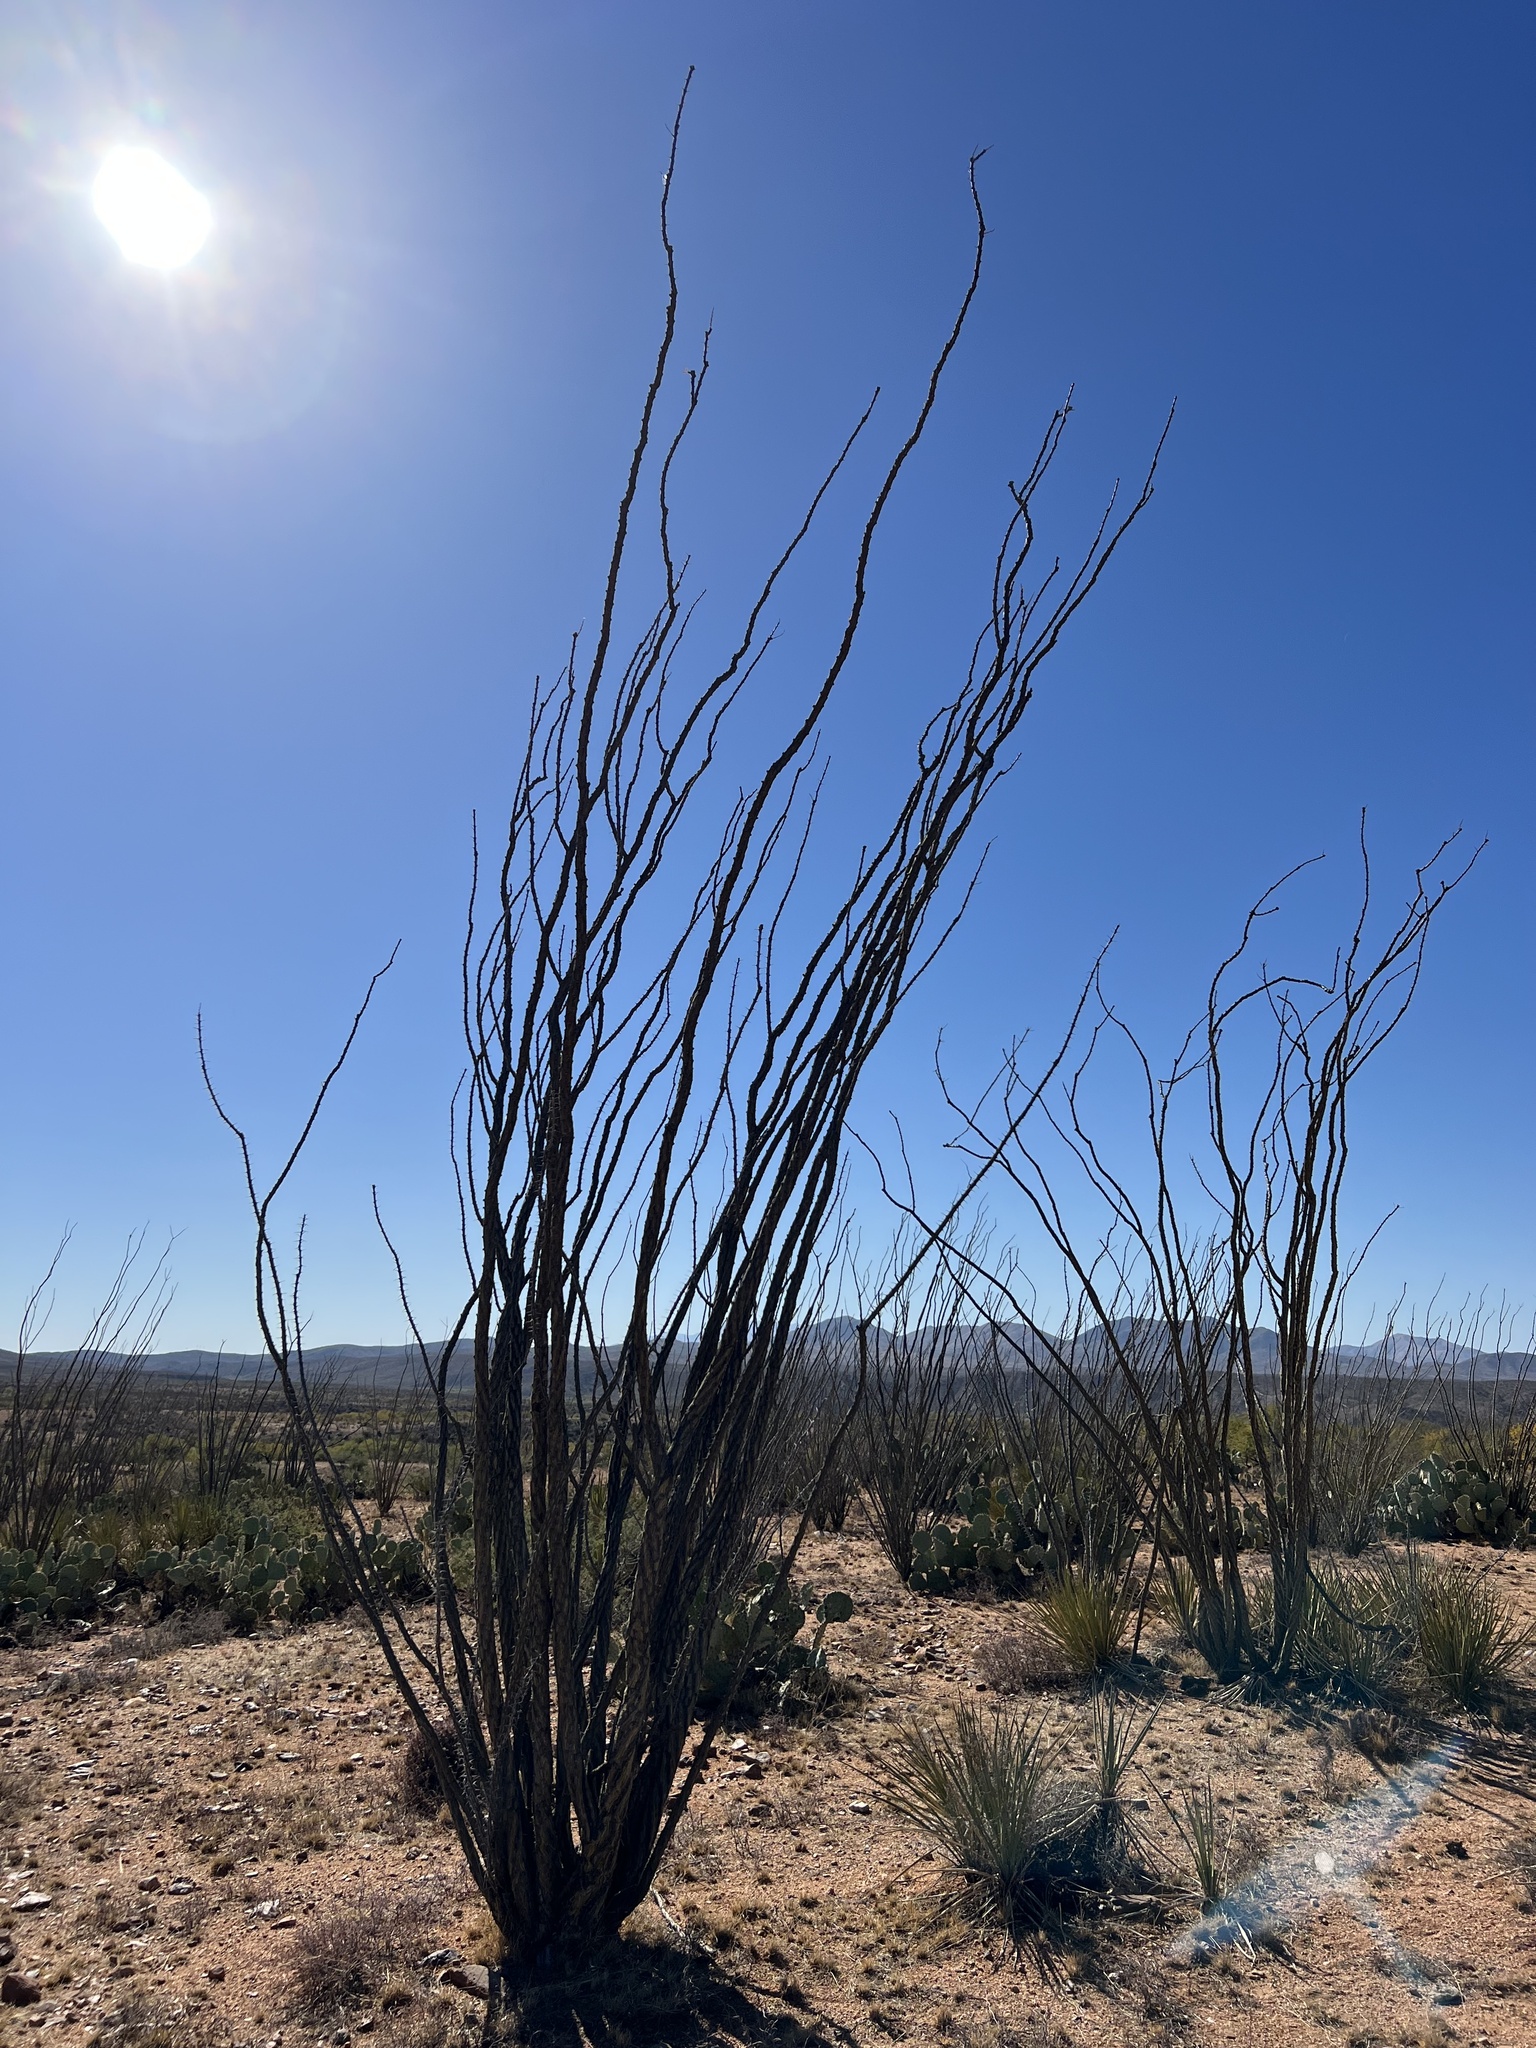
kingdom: Plantae
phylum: Tracheophyta
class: Magnoliopsida
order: Ericales
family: Fouquieriaceae
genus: Fouquieria
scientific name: Fouquieria splendens
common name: Vine-cactus
